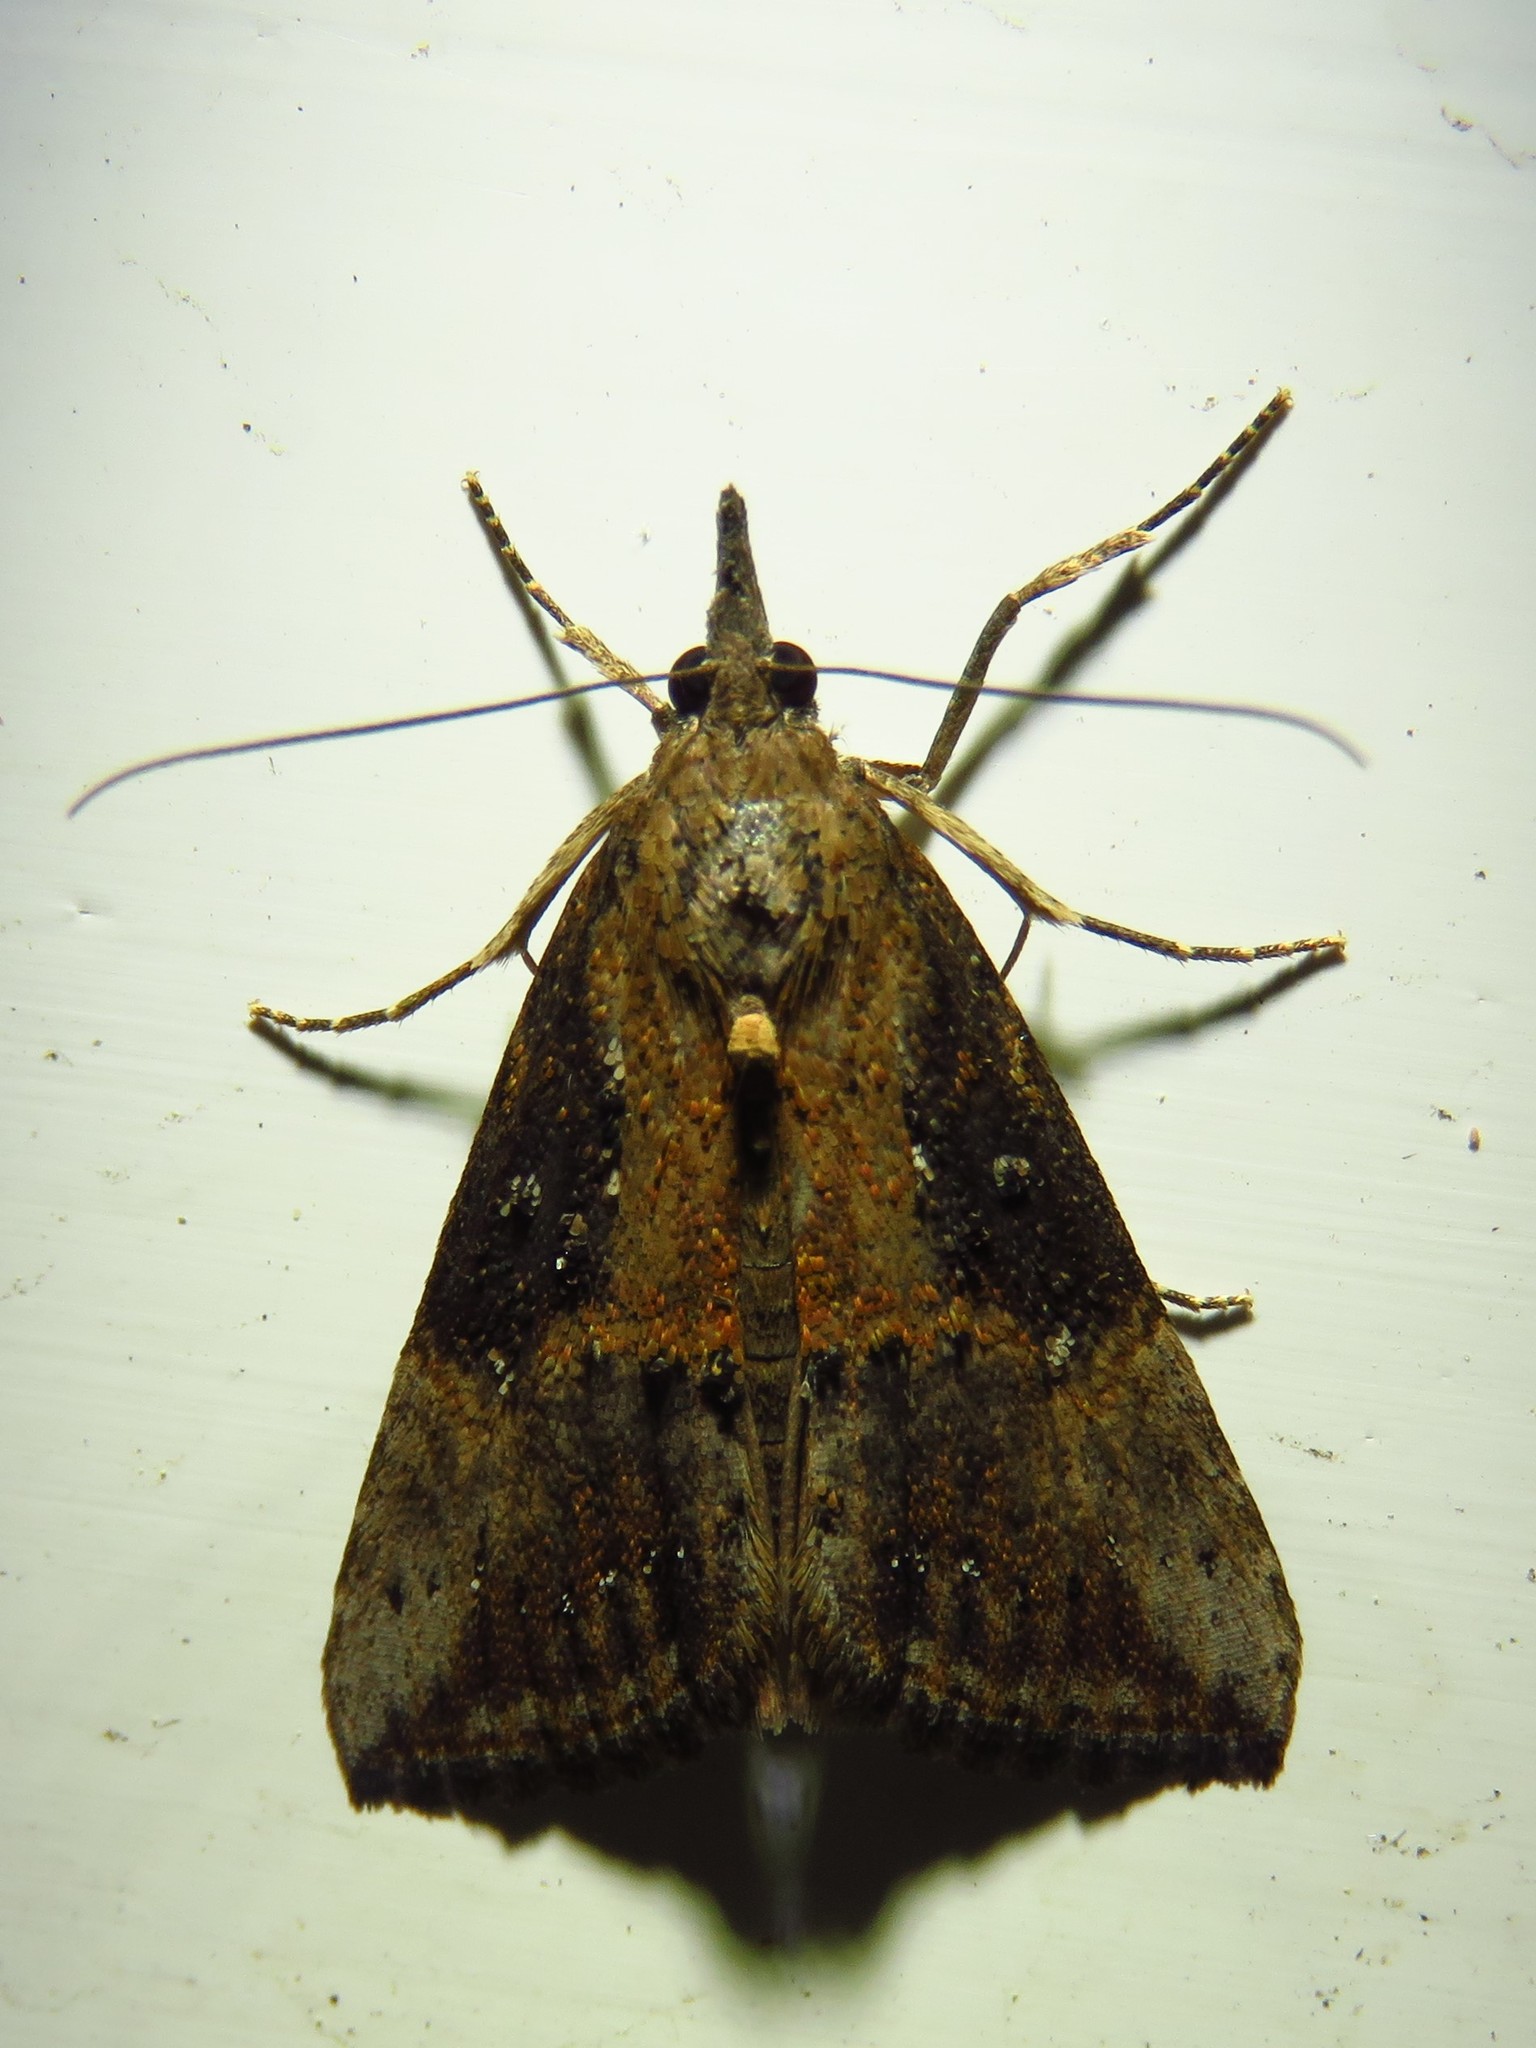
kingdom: Animalia
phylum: Arthropoda
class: Insecta
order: Lepidoptera
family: Erebidae
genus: Hypena
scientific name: Hypena scabra
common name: Green cloverworm
